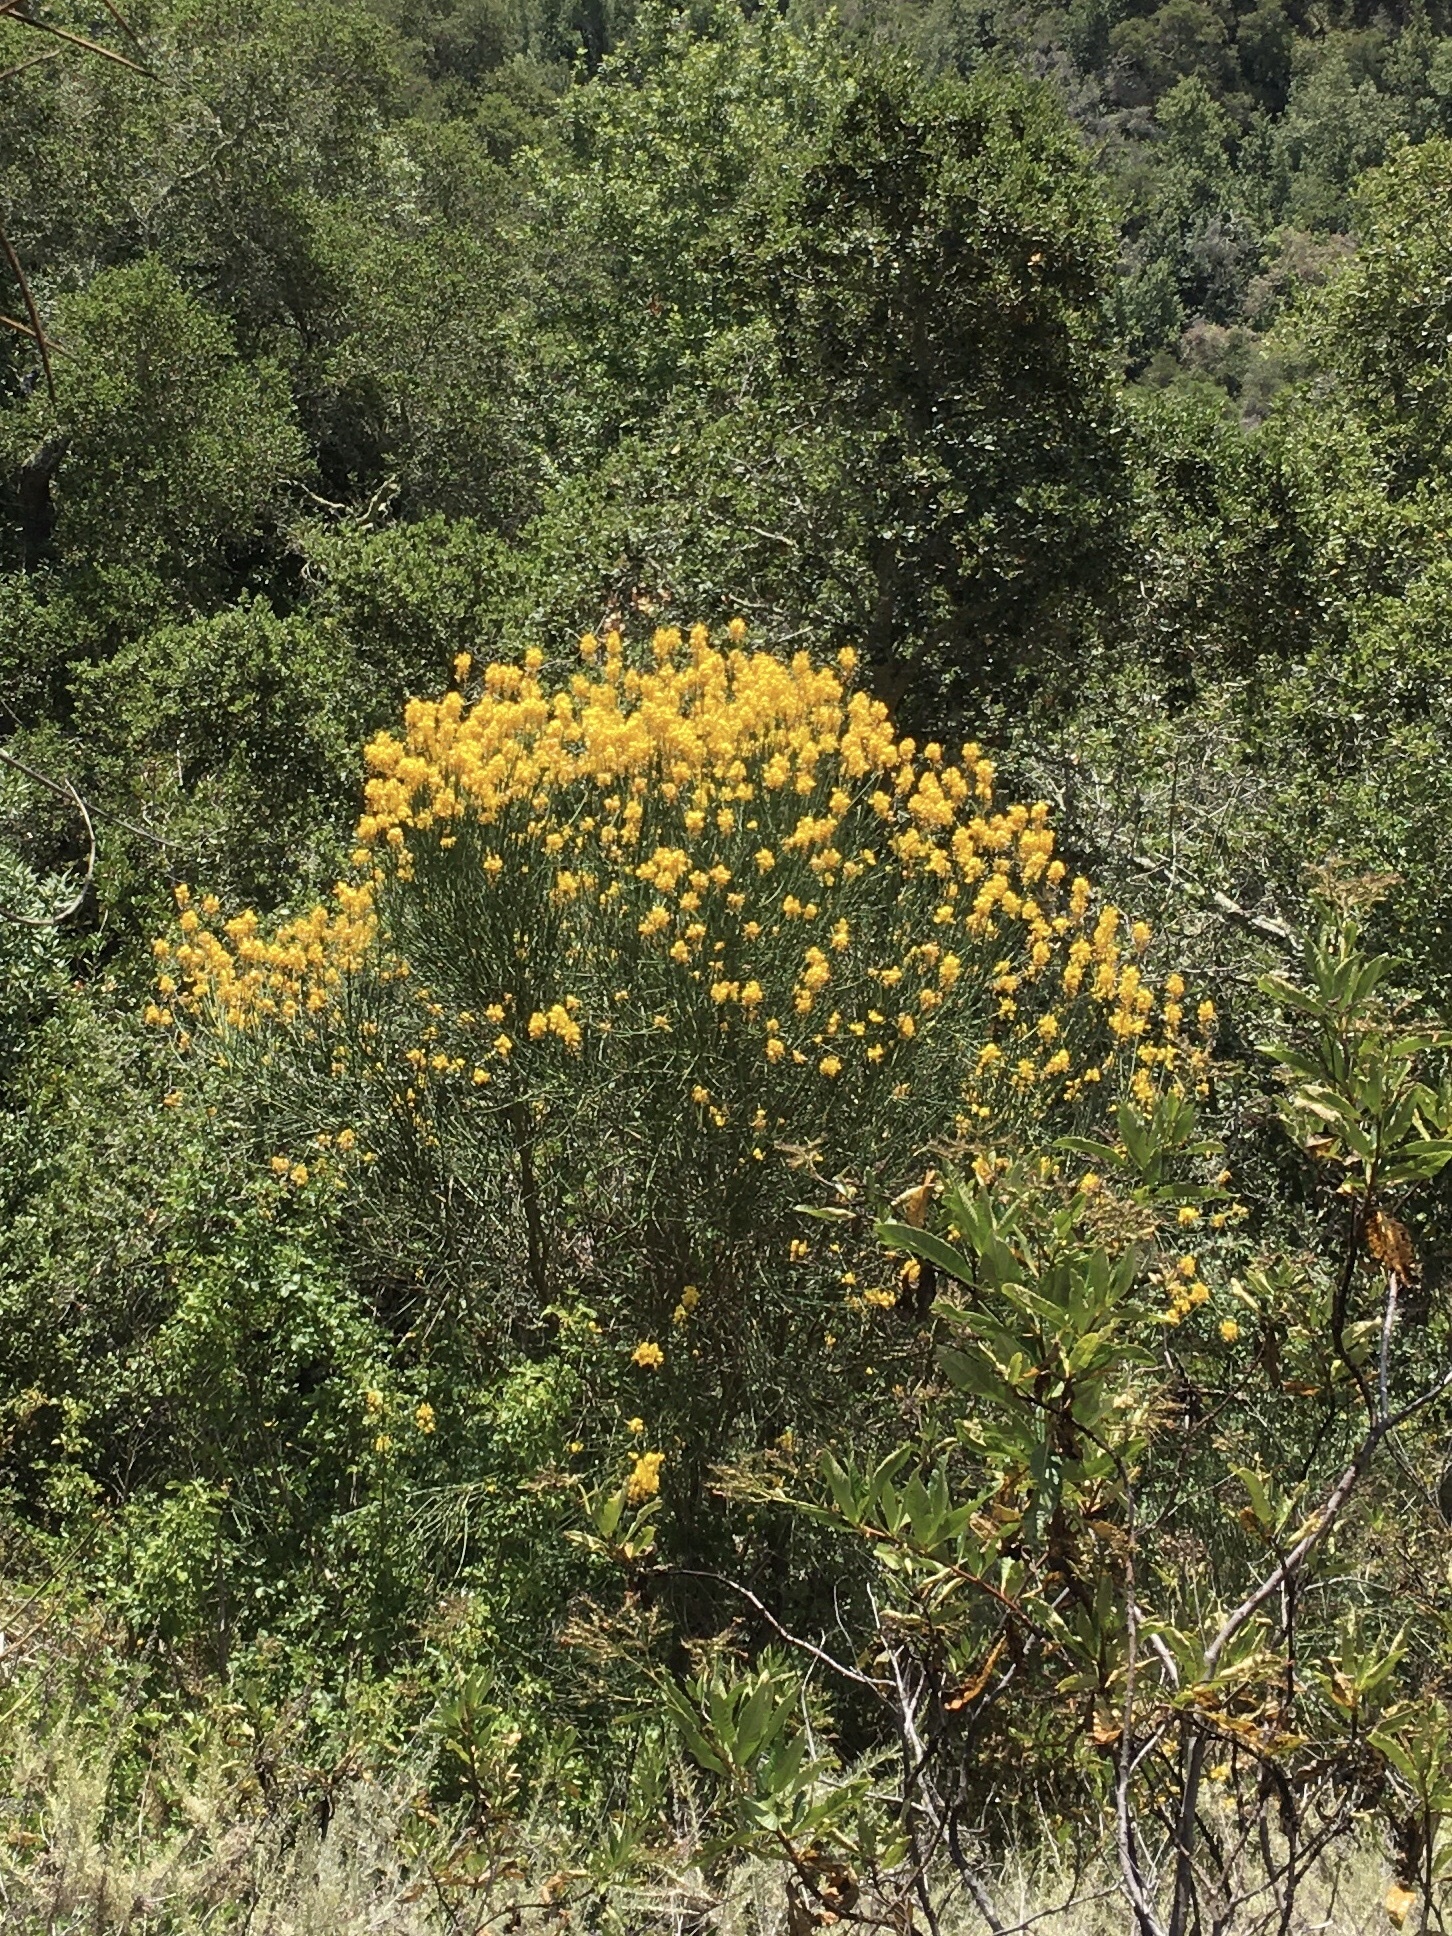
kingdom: Plantae
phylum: Tracheophyta
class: Magnoliopsida
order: Fabales
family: Fabaceae
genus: Spartium
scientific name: Spartium junceum
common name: Spanish broom
